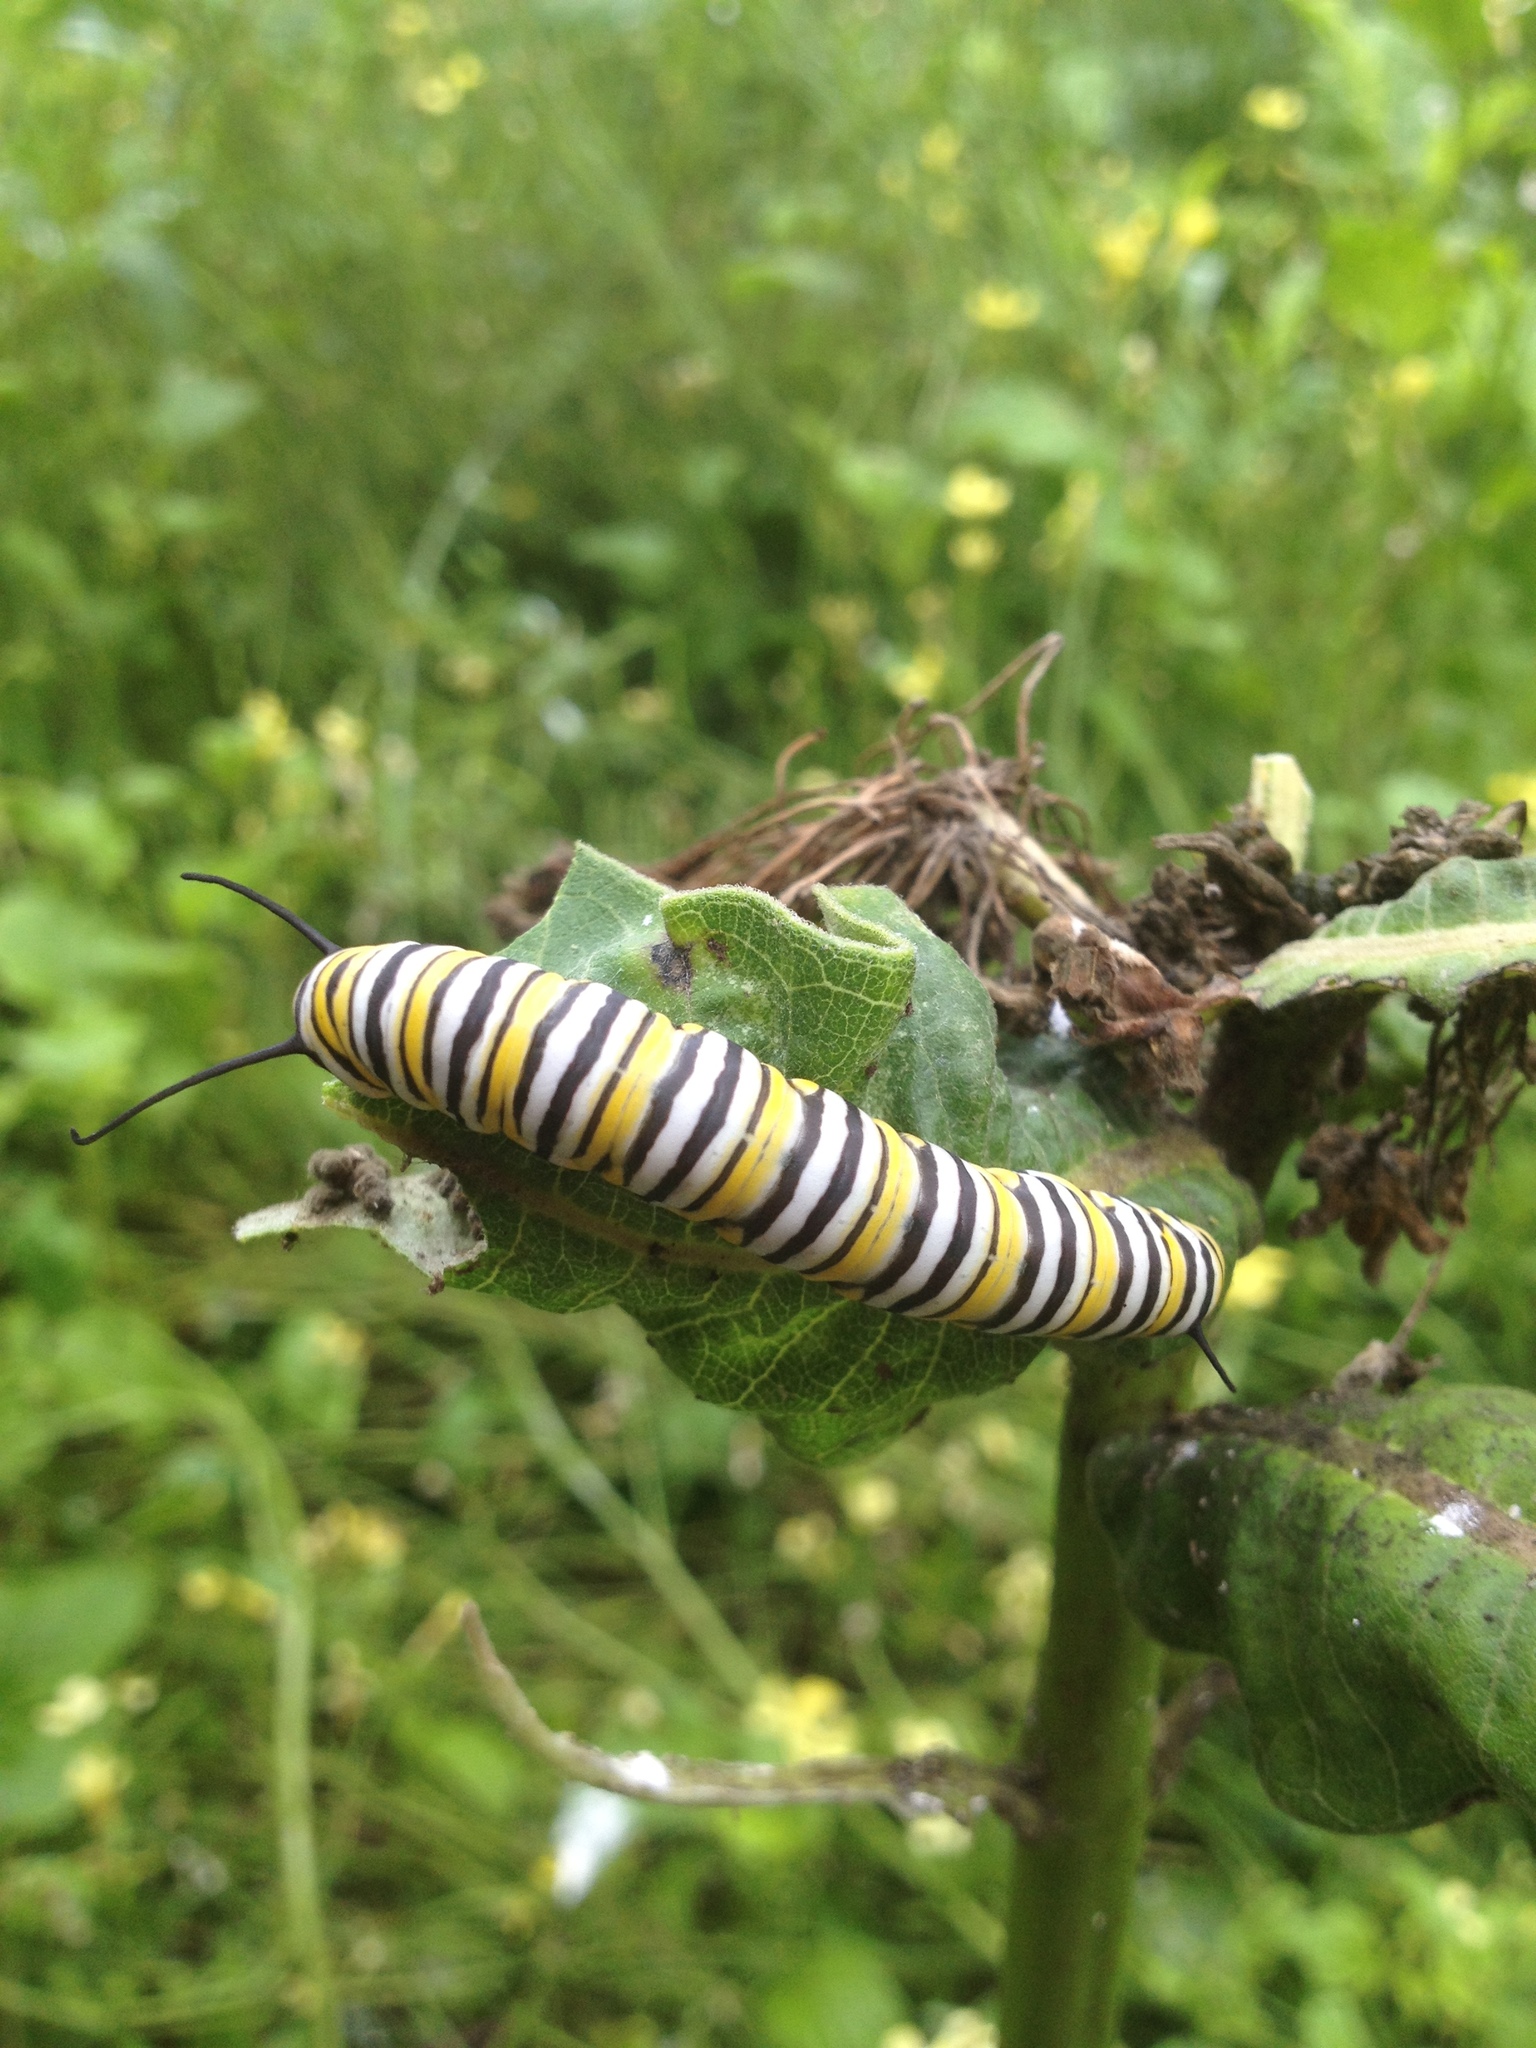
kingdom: Animalia
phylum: Arthropoda
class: Insecta
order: Lepidoptera
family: Nymphalidae
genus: Danaus
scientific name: Danaus plexippus
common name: Monarch
